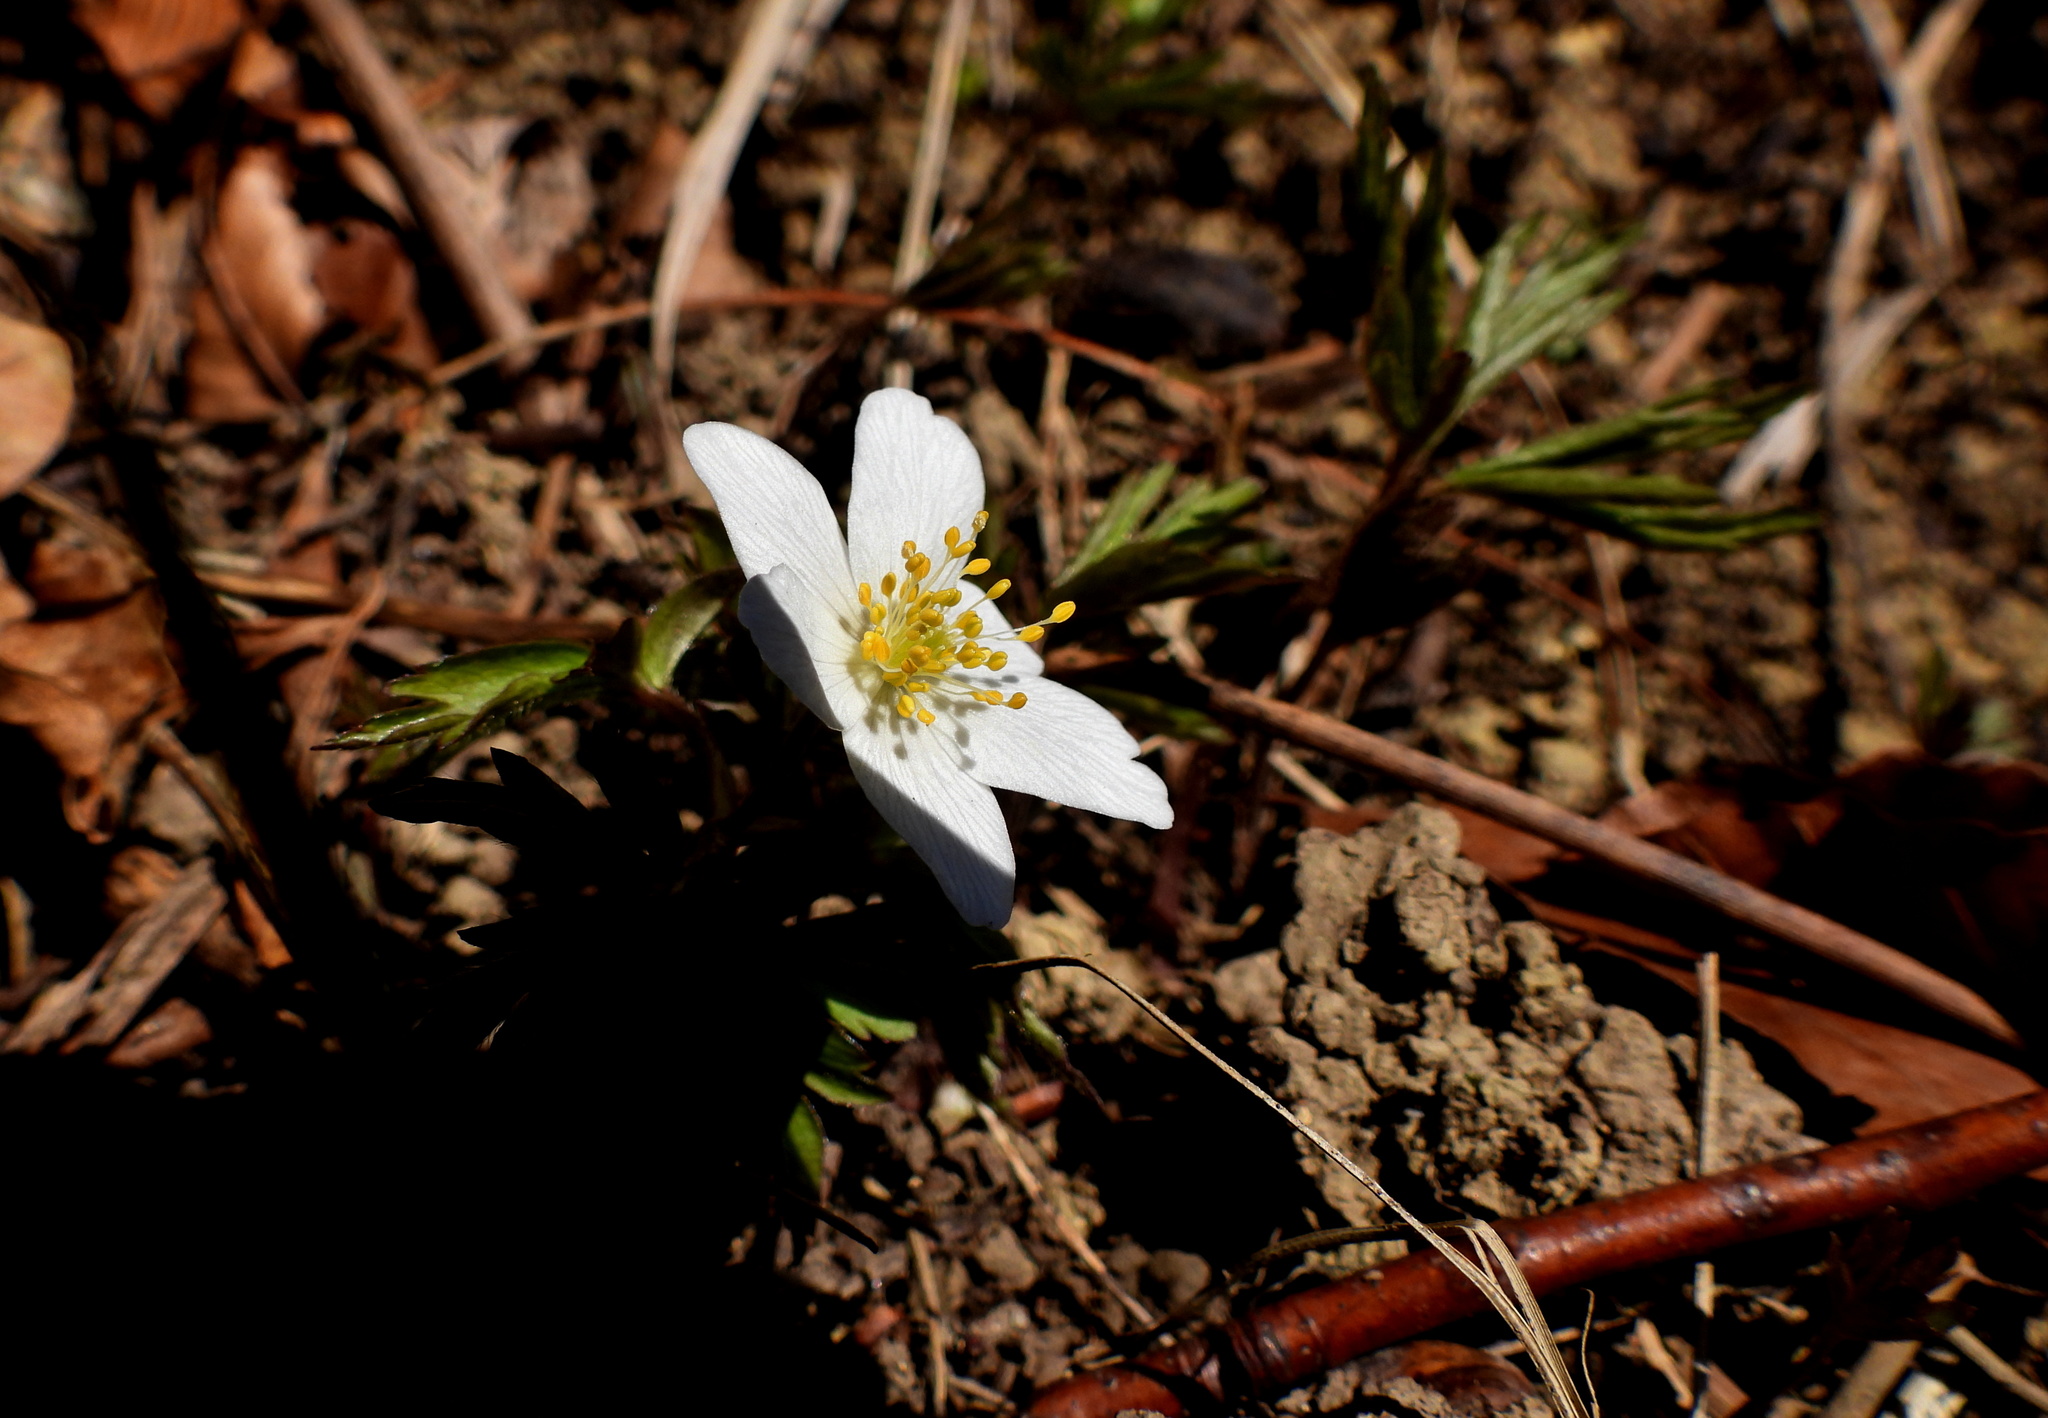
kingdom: Plantae
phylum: Tracheophyta
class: Magnoliopsida
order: Ranunculales
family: Ranunculaceae
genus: Anemone
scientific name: Anemone nemorosa
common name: Wood anemone
